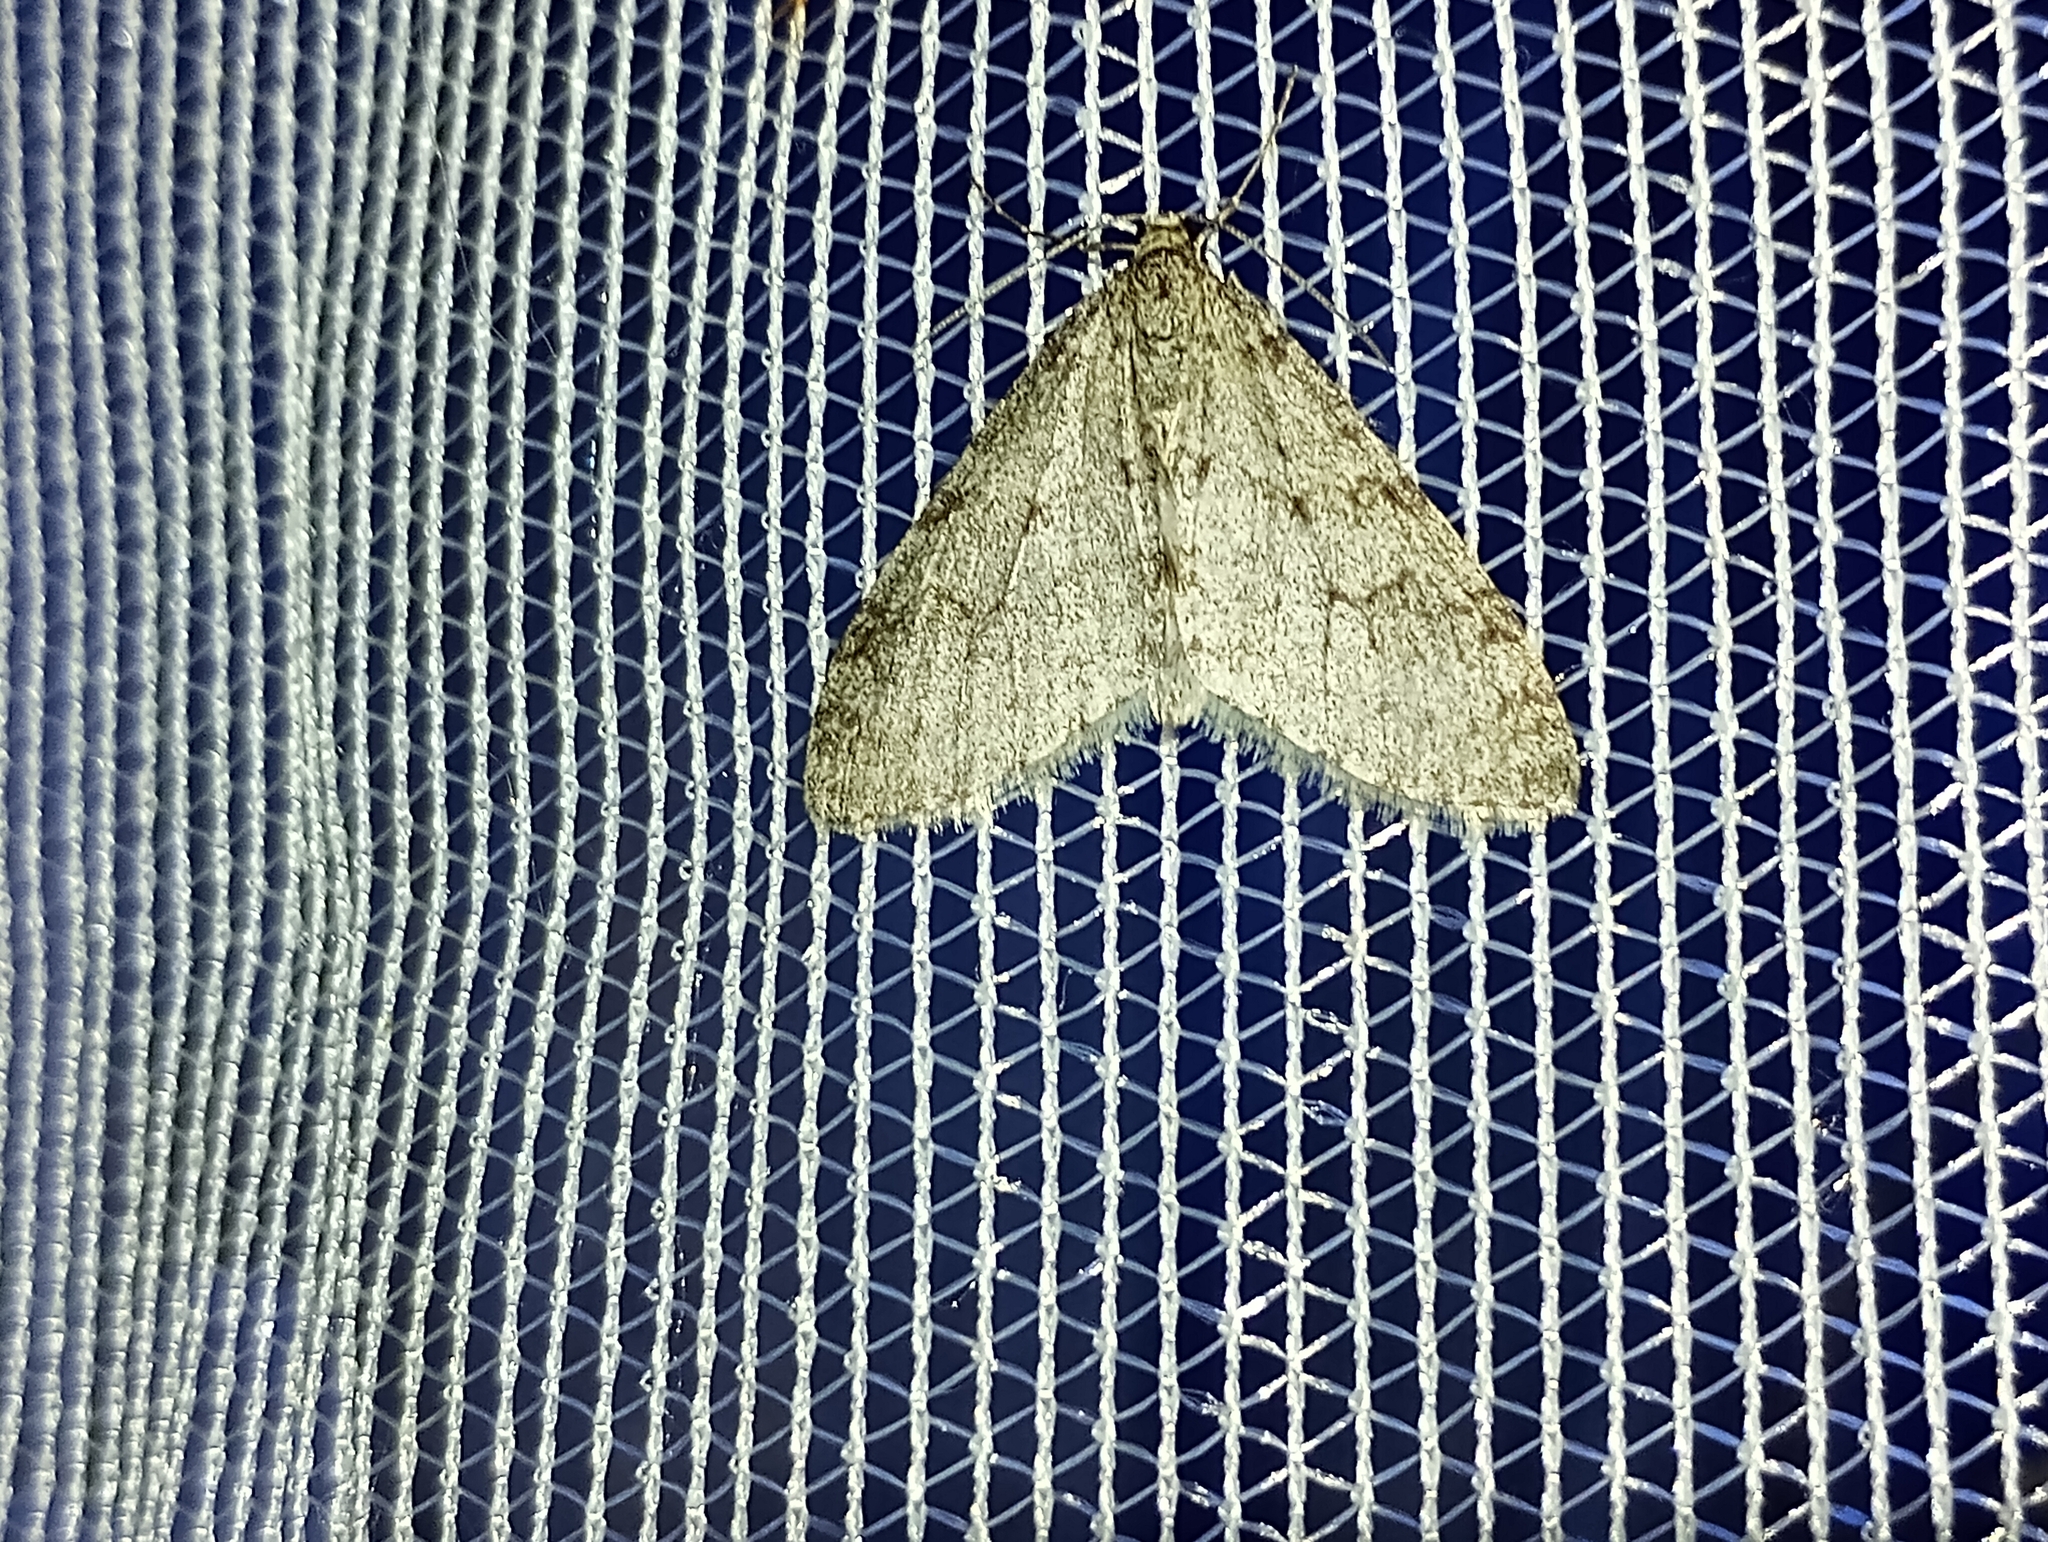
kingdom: Animalia
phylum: Arthropoda
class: Insecta
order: Lepidoptera
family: Geometridae
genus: Trichopteryx
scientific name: Trichopteryx carpinata
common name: Early tooth-striped
